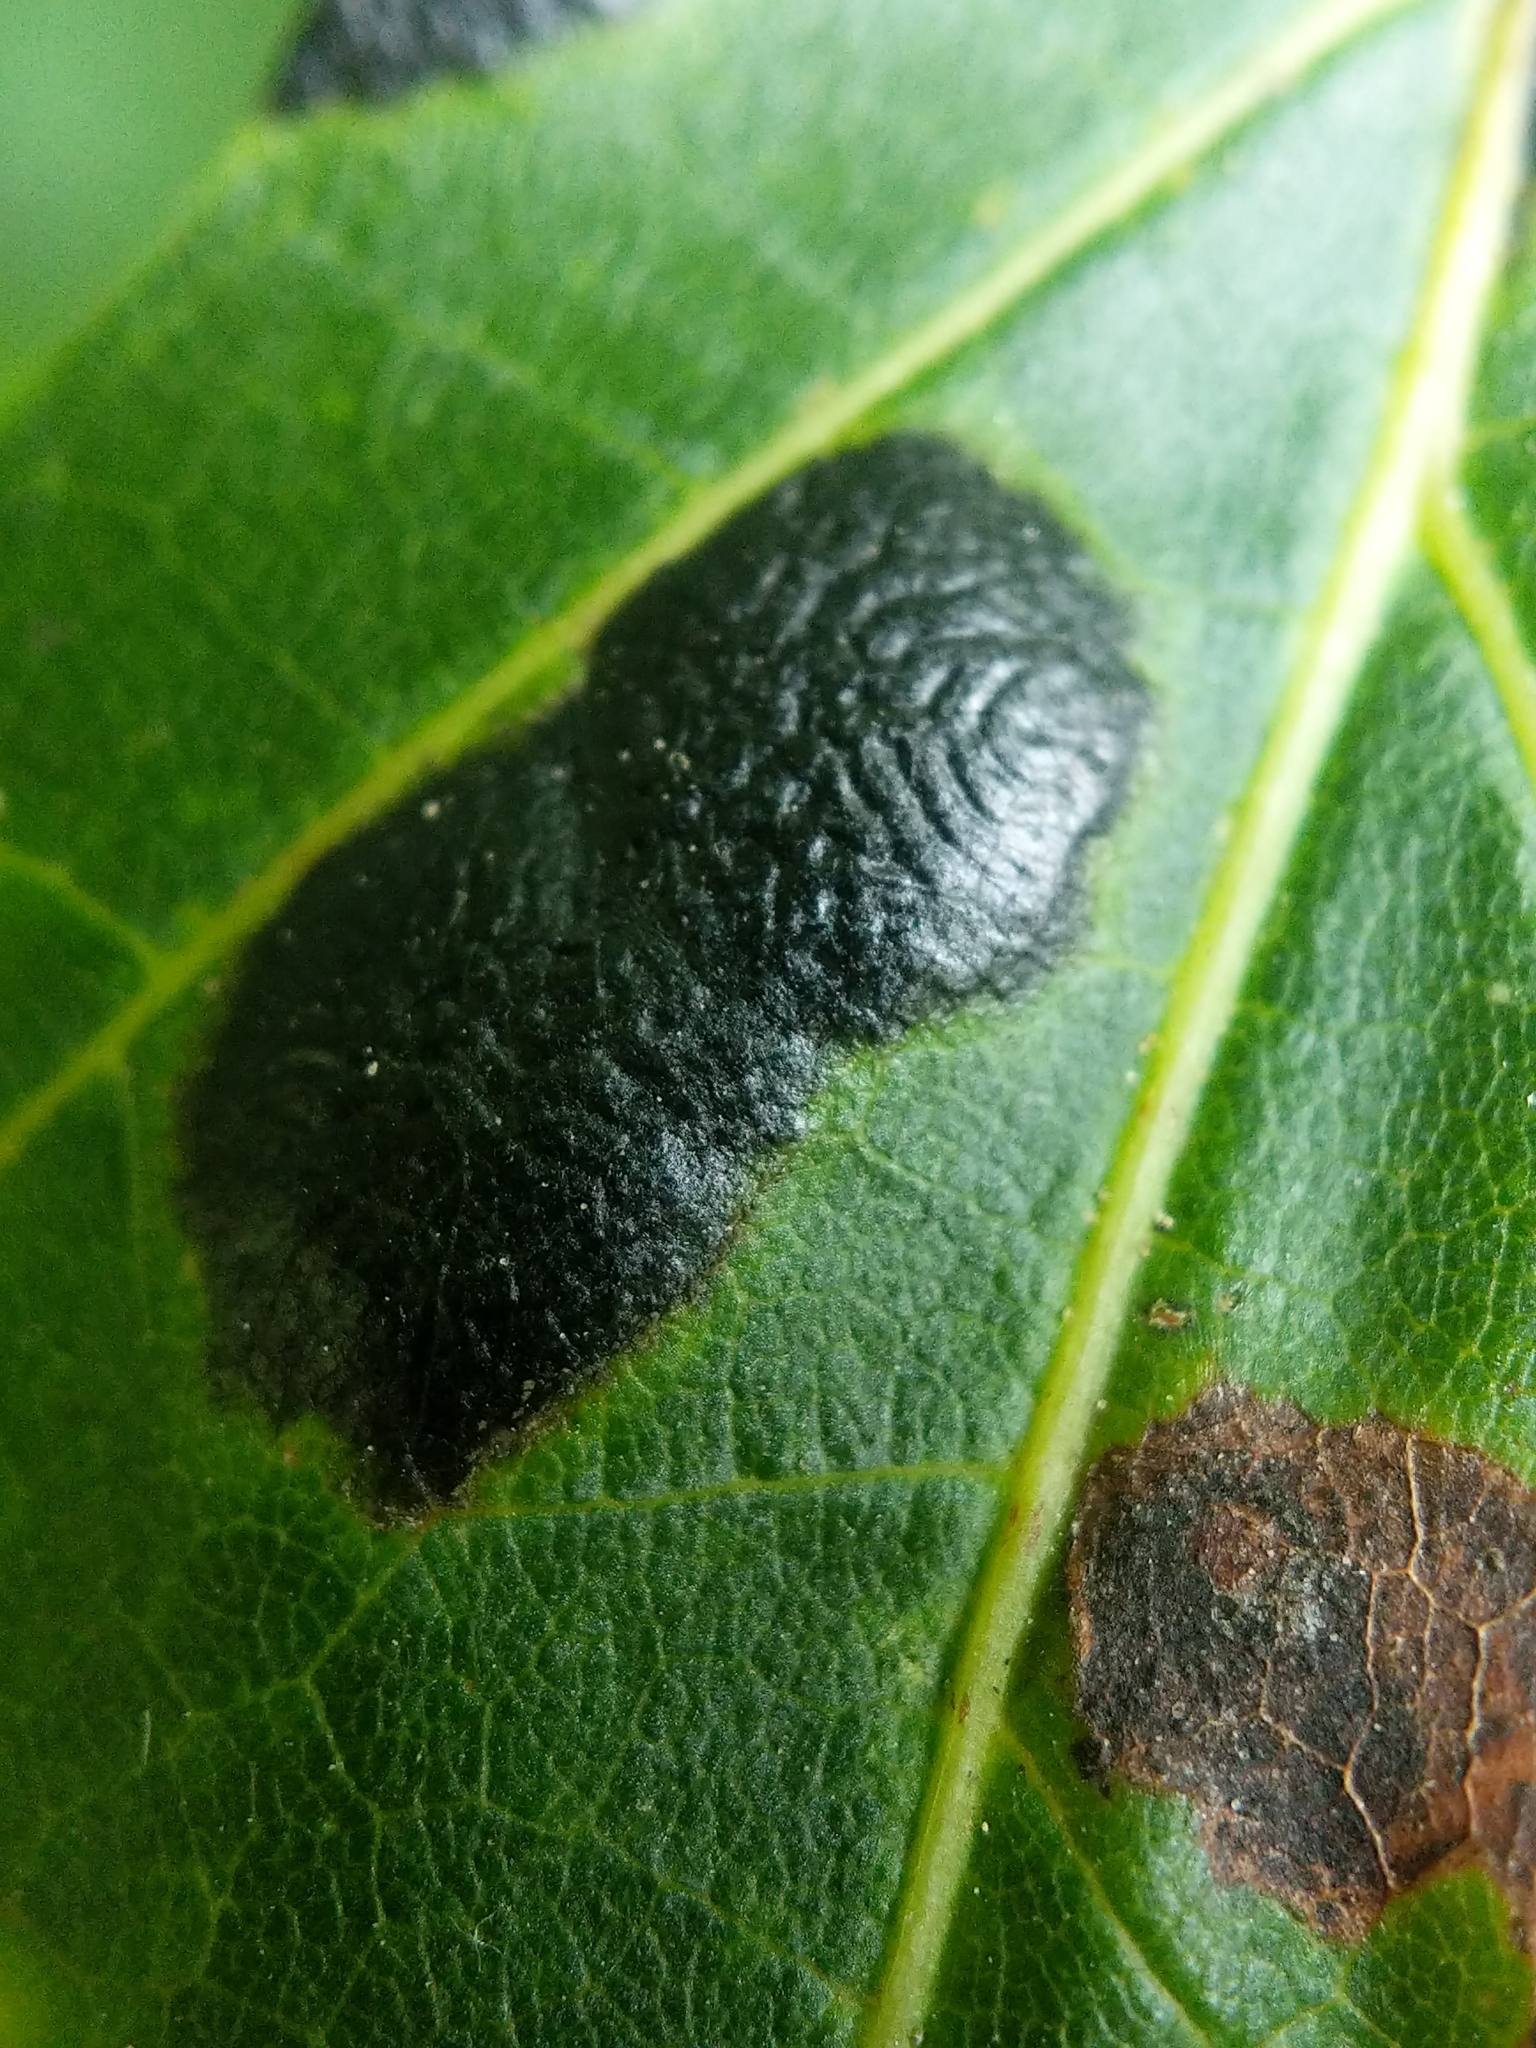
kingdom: Fungi
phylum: Ascomycota
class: Leotiomycetes
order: Rhytismatales
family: Rhytismataceae
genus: Rhytisma
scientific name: Rhytisma americanum
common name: American tar spot
